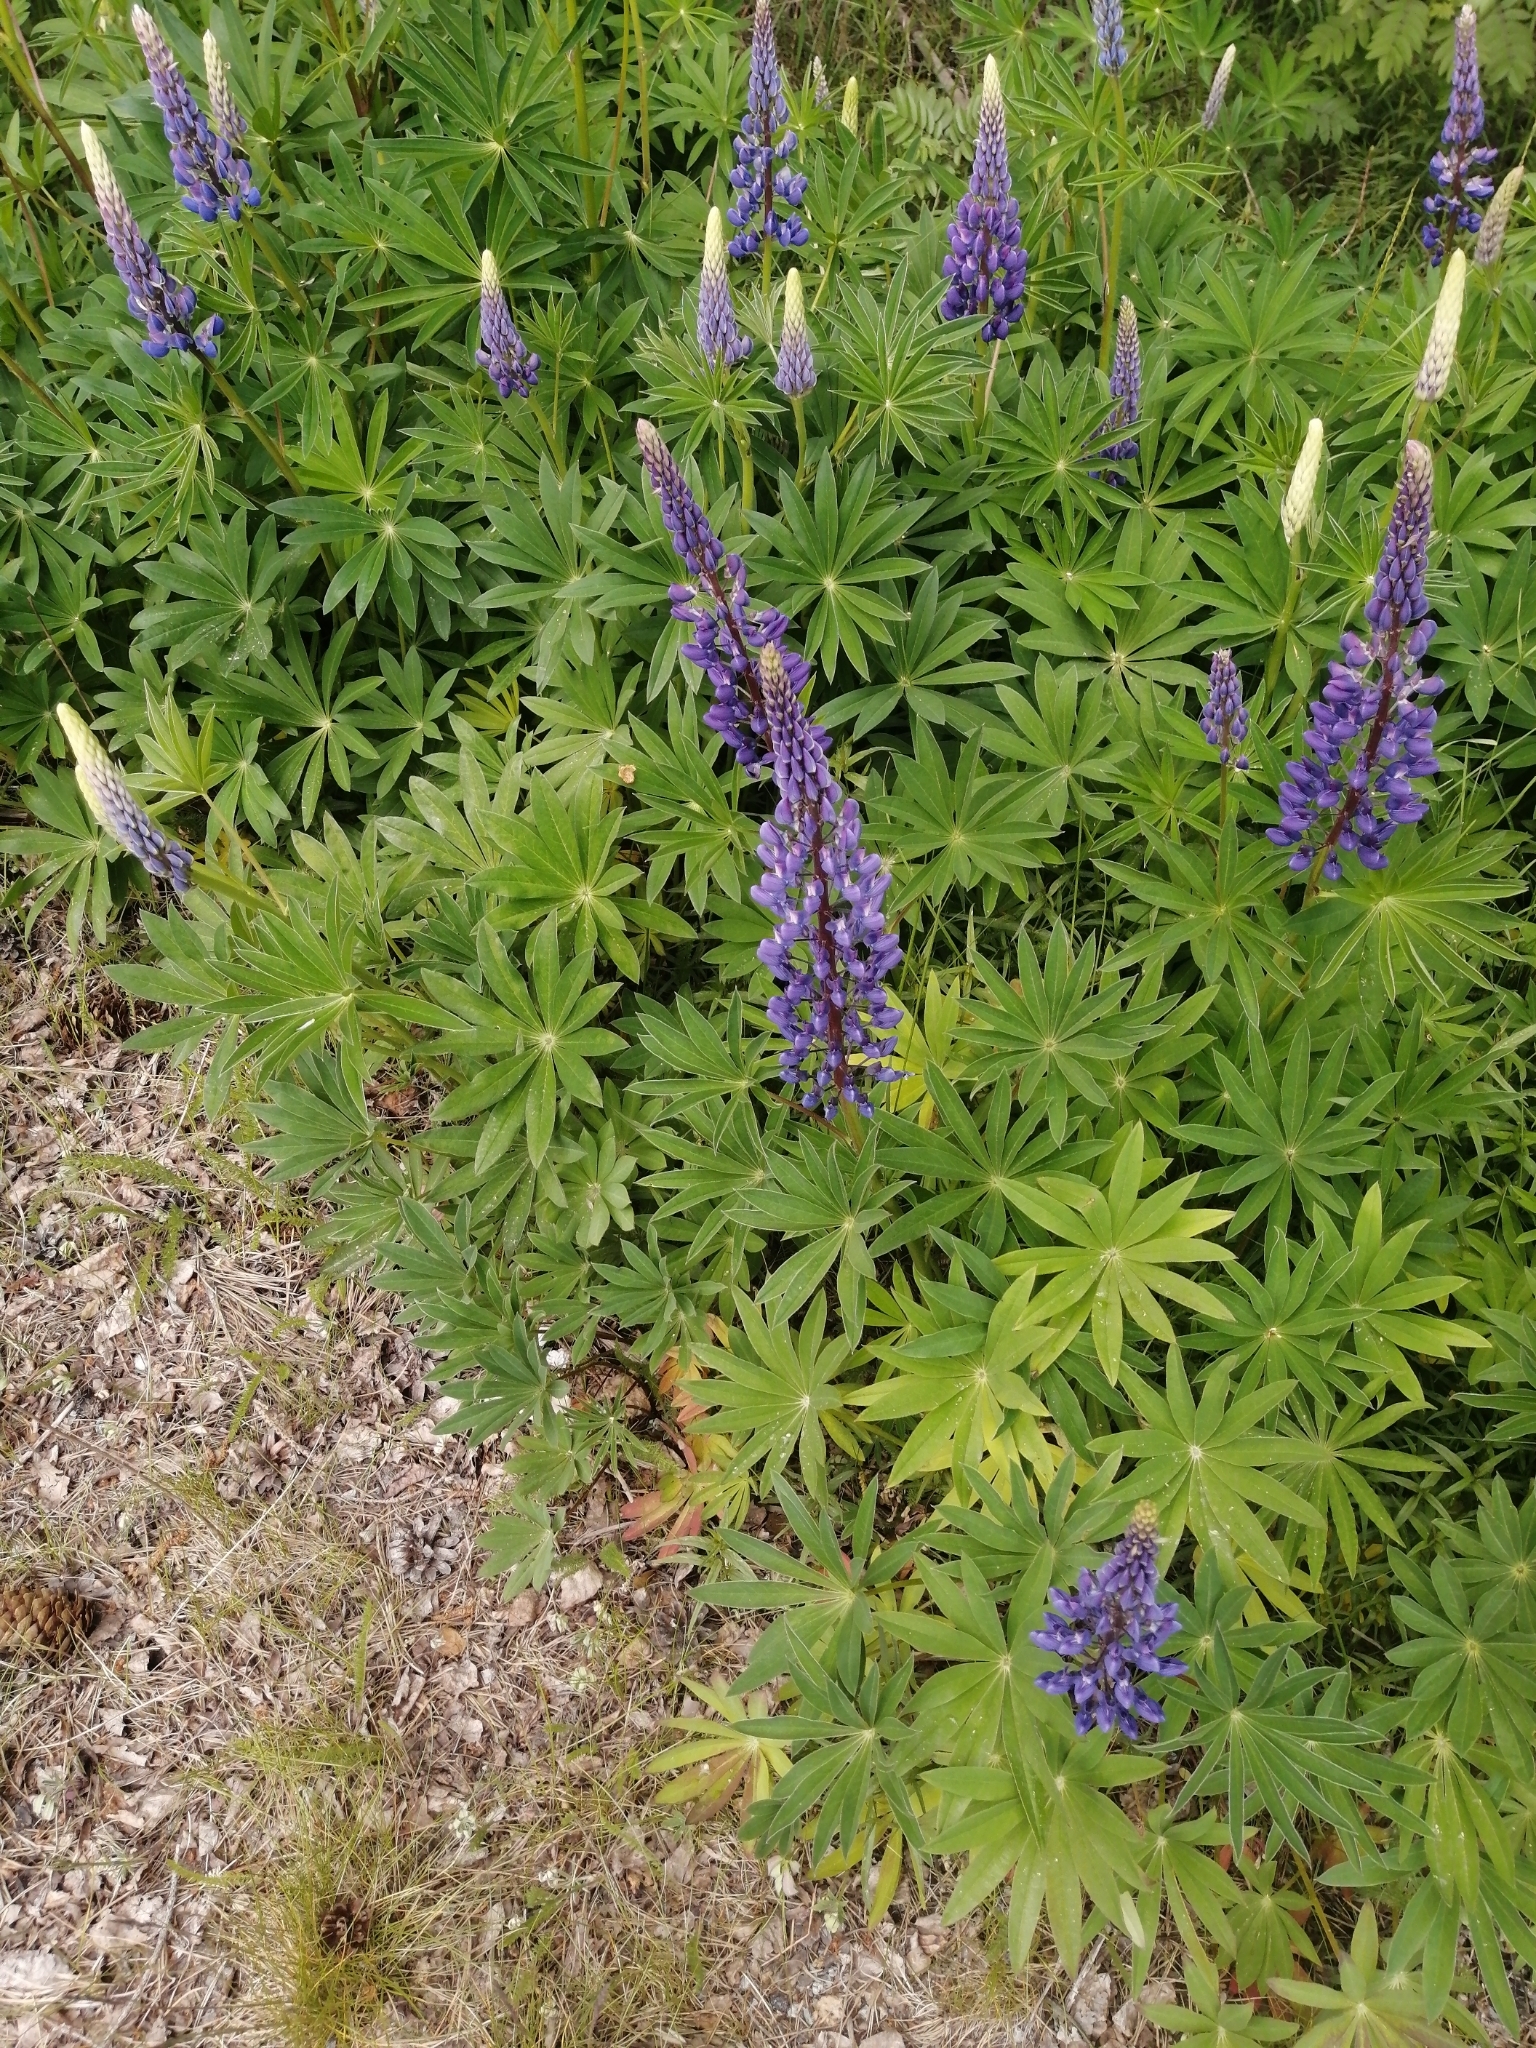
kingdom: Plantae
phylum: Tracheophyta
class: Magnoliopsida
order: Fabales
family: Fabaceae
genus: Lupinus
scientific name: Lupinus polyphyllus
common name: Garden lupin
